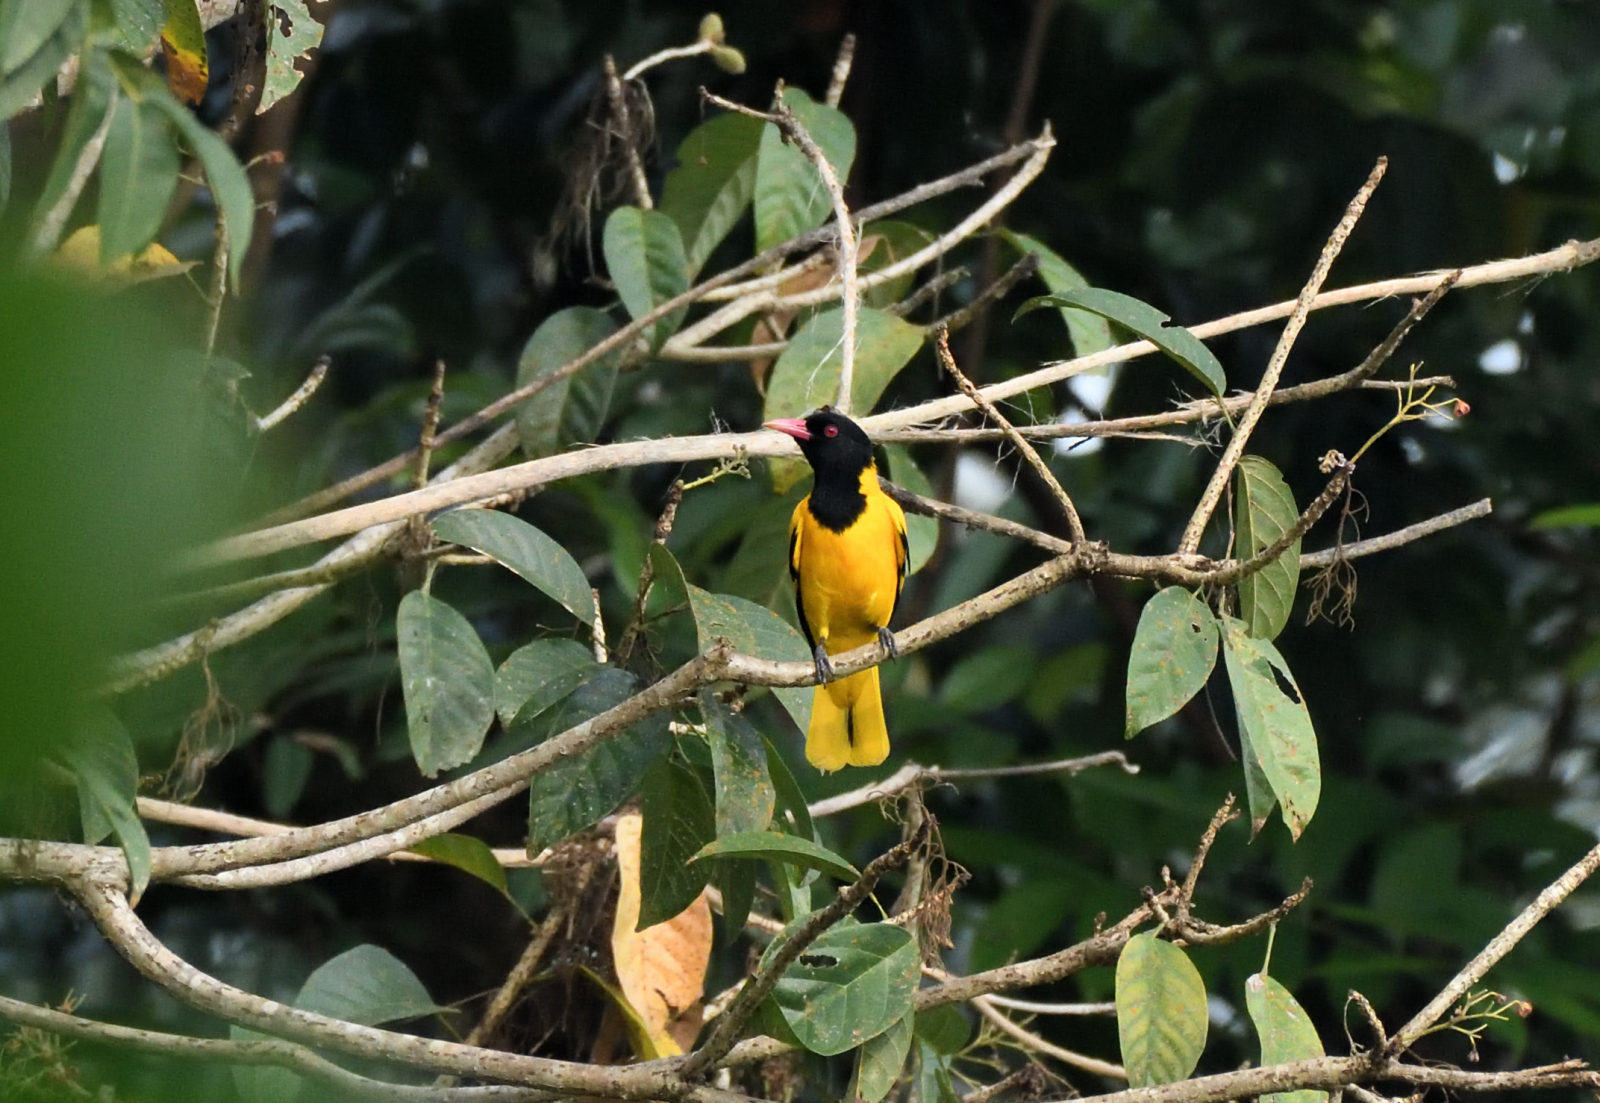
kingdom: Animalia
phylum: Chordata
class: Aves
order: Passeriformes
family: Oriolidae
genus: Oriolus
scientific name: Oriolus xanthornus
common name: Black-hooded oriole
